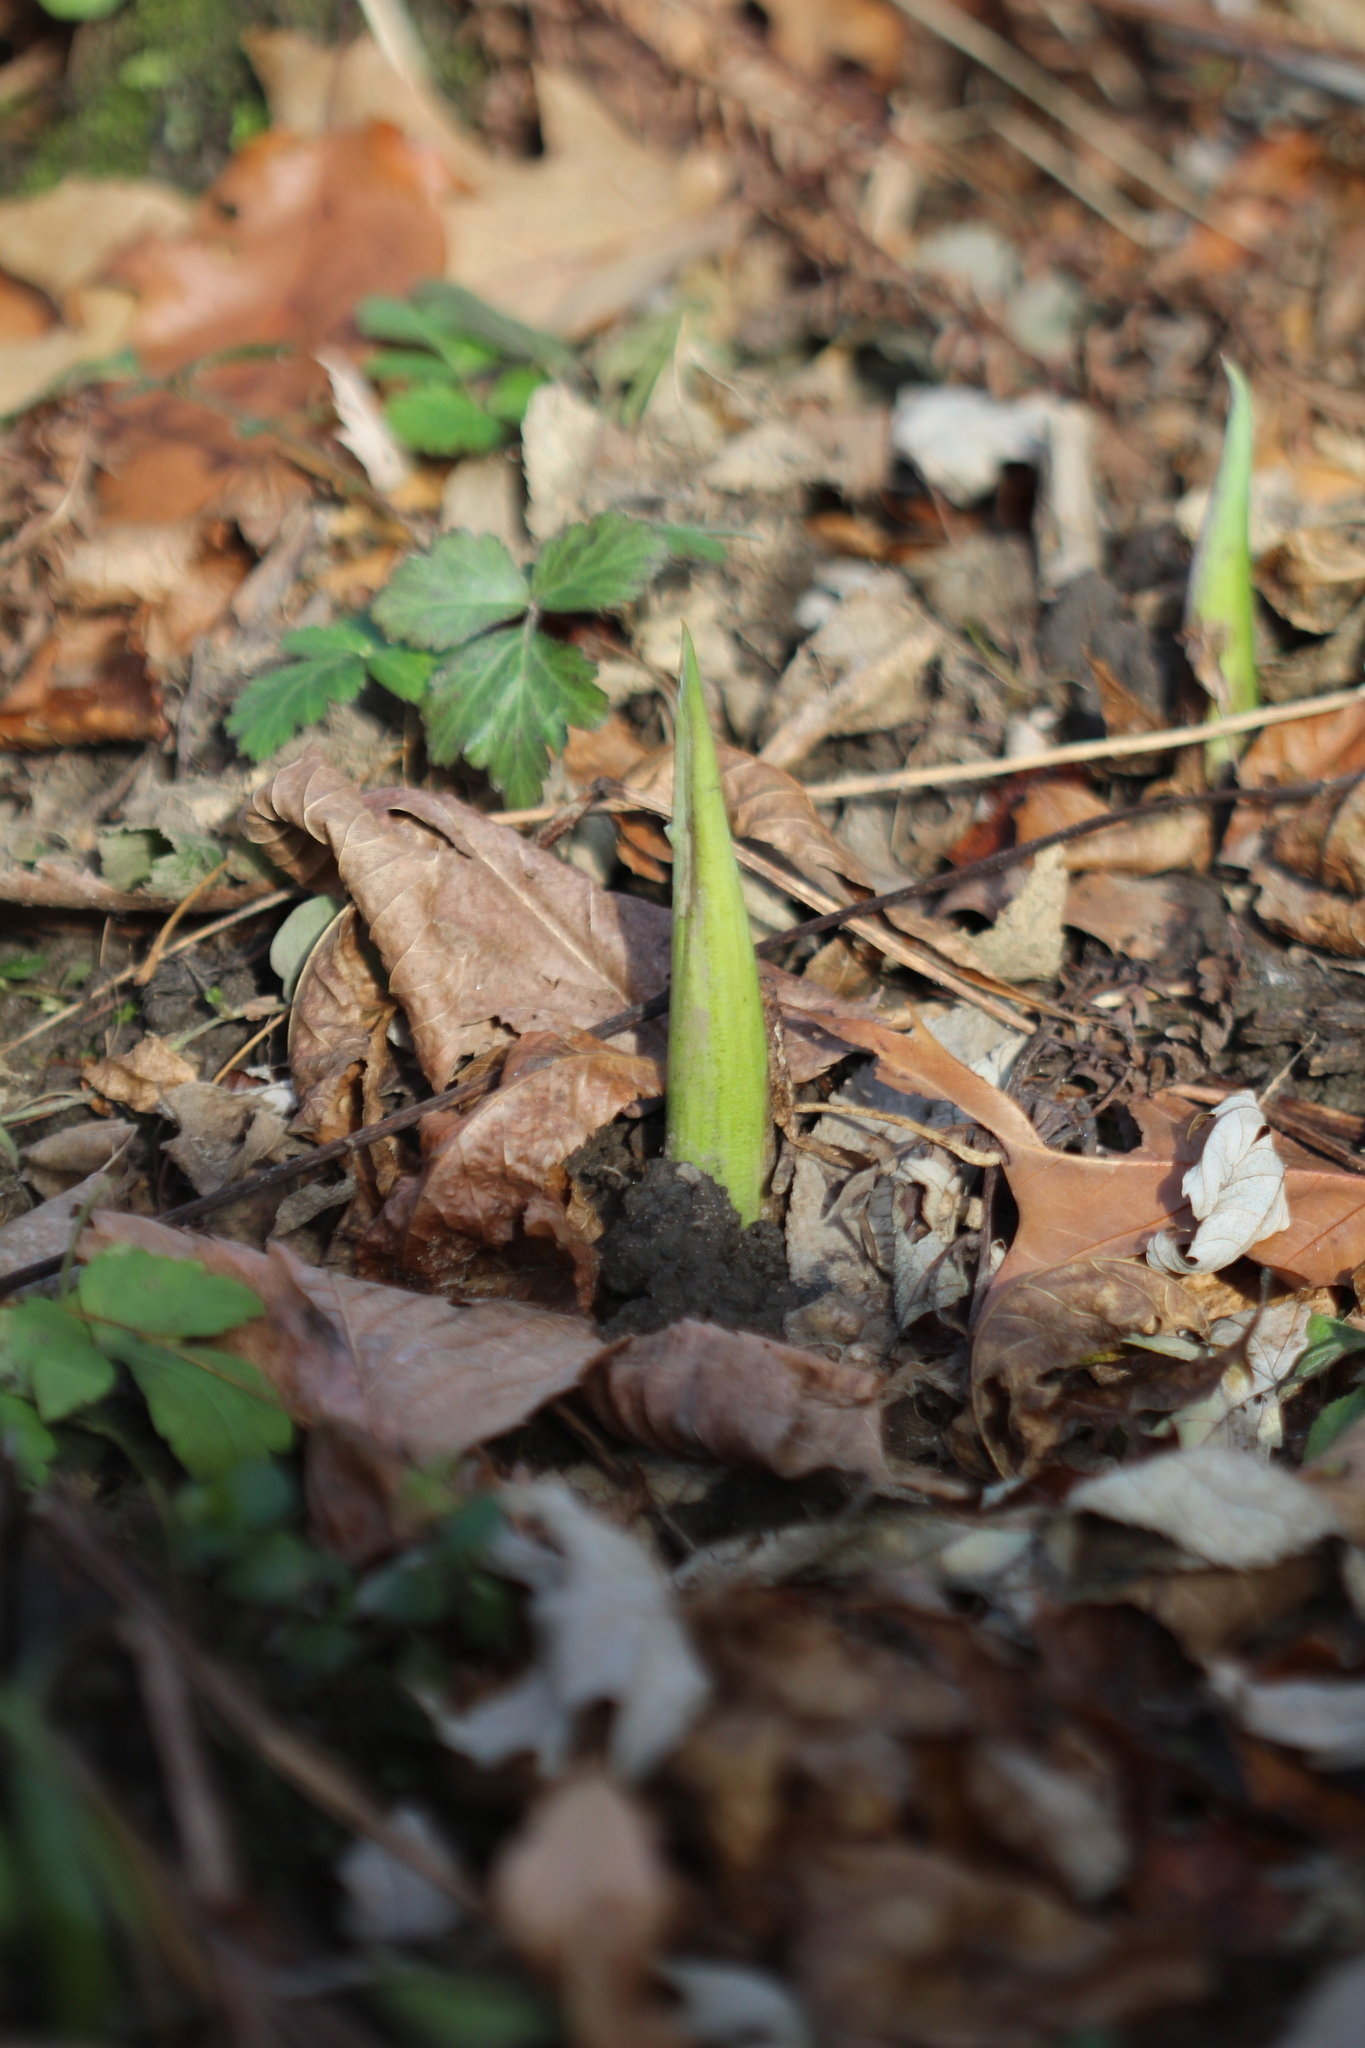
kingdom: Plantae
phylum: Tracheophyta
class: Liliopsida
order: Alismatales
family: Araceae
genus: Symplocarpus
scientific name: Symplocarpus foetidus
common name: Eastern skunk cabbage
